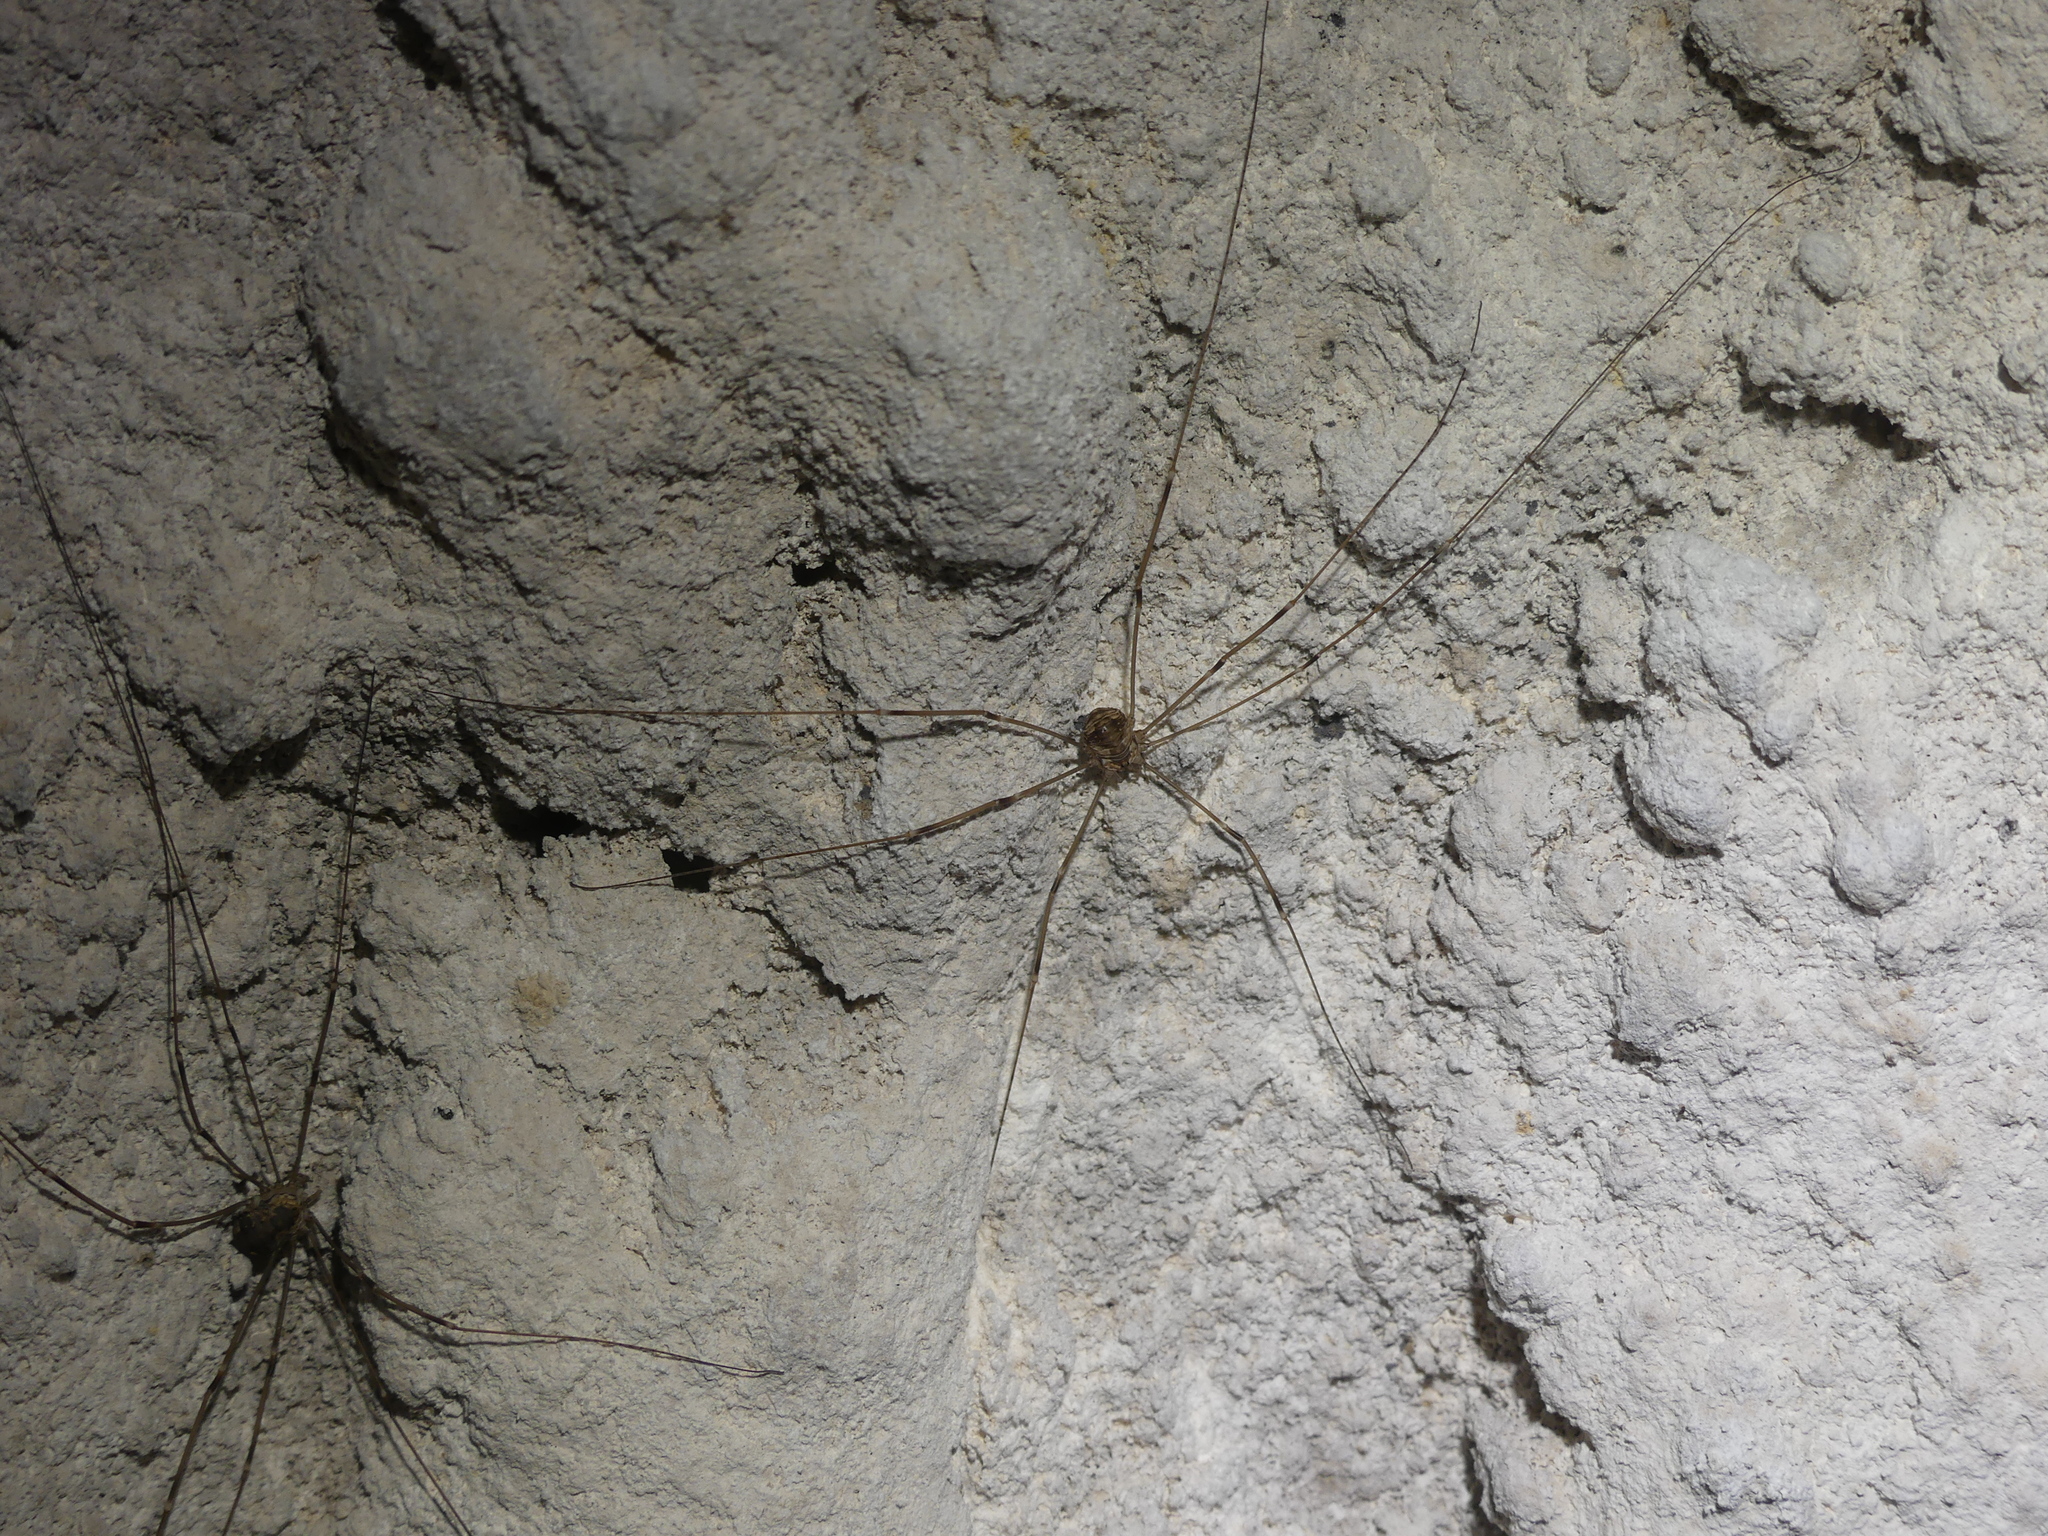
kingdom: Animalia
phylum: Arthropoda
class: Arachnida
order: Opiliones
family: Sclerosomatidae
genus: Leiobunum
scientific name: Leiobunum limbatum
